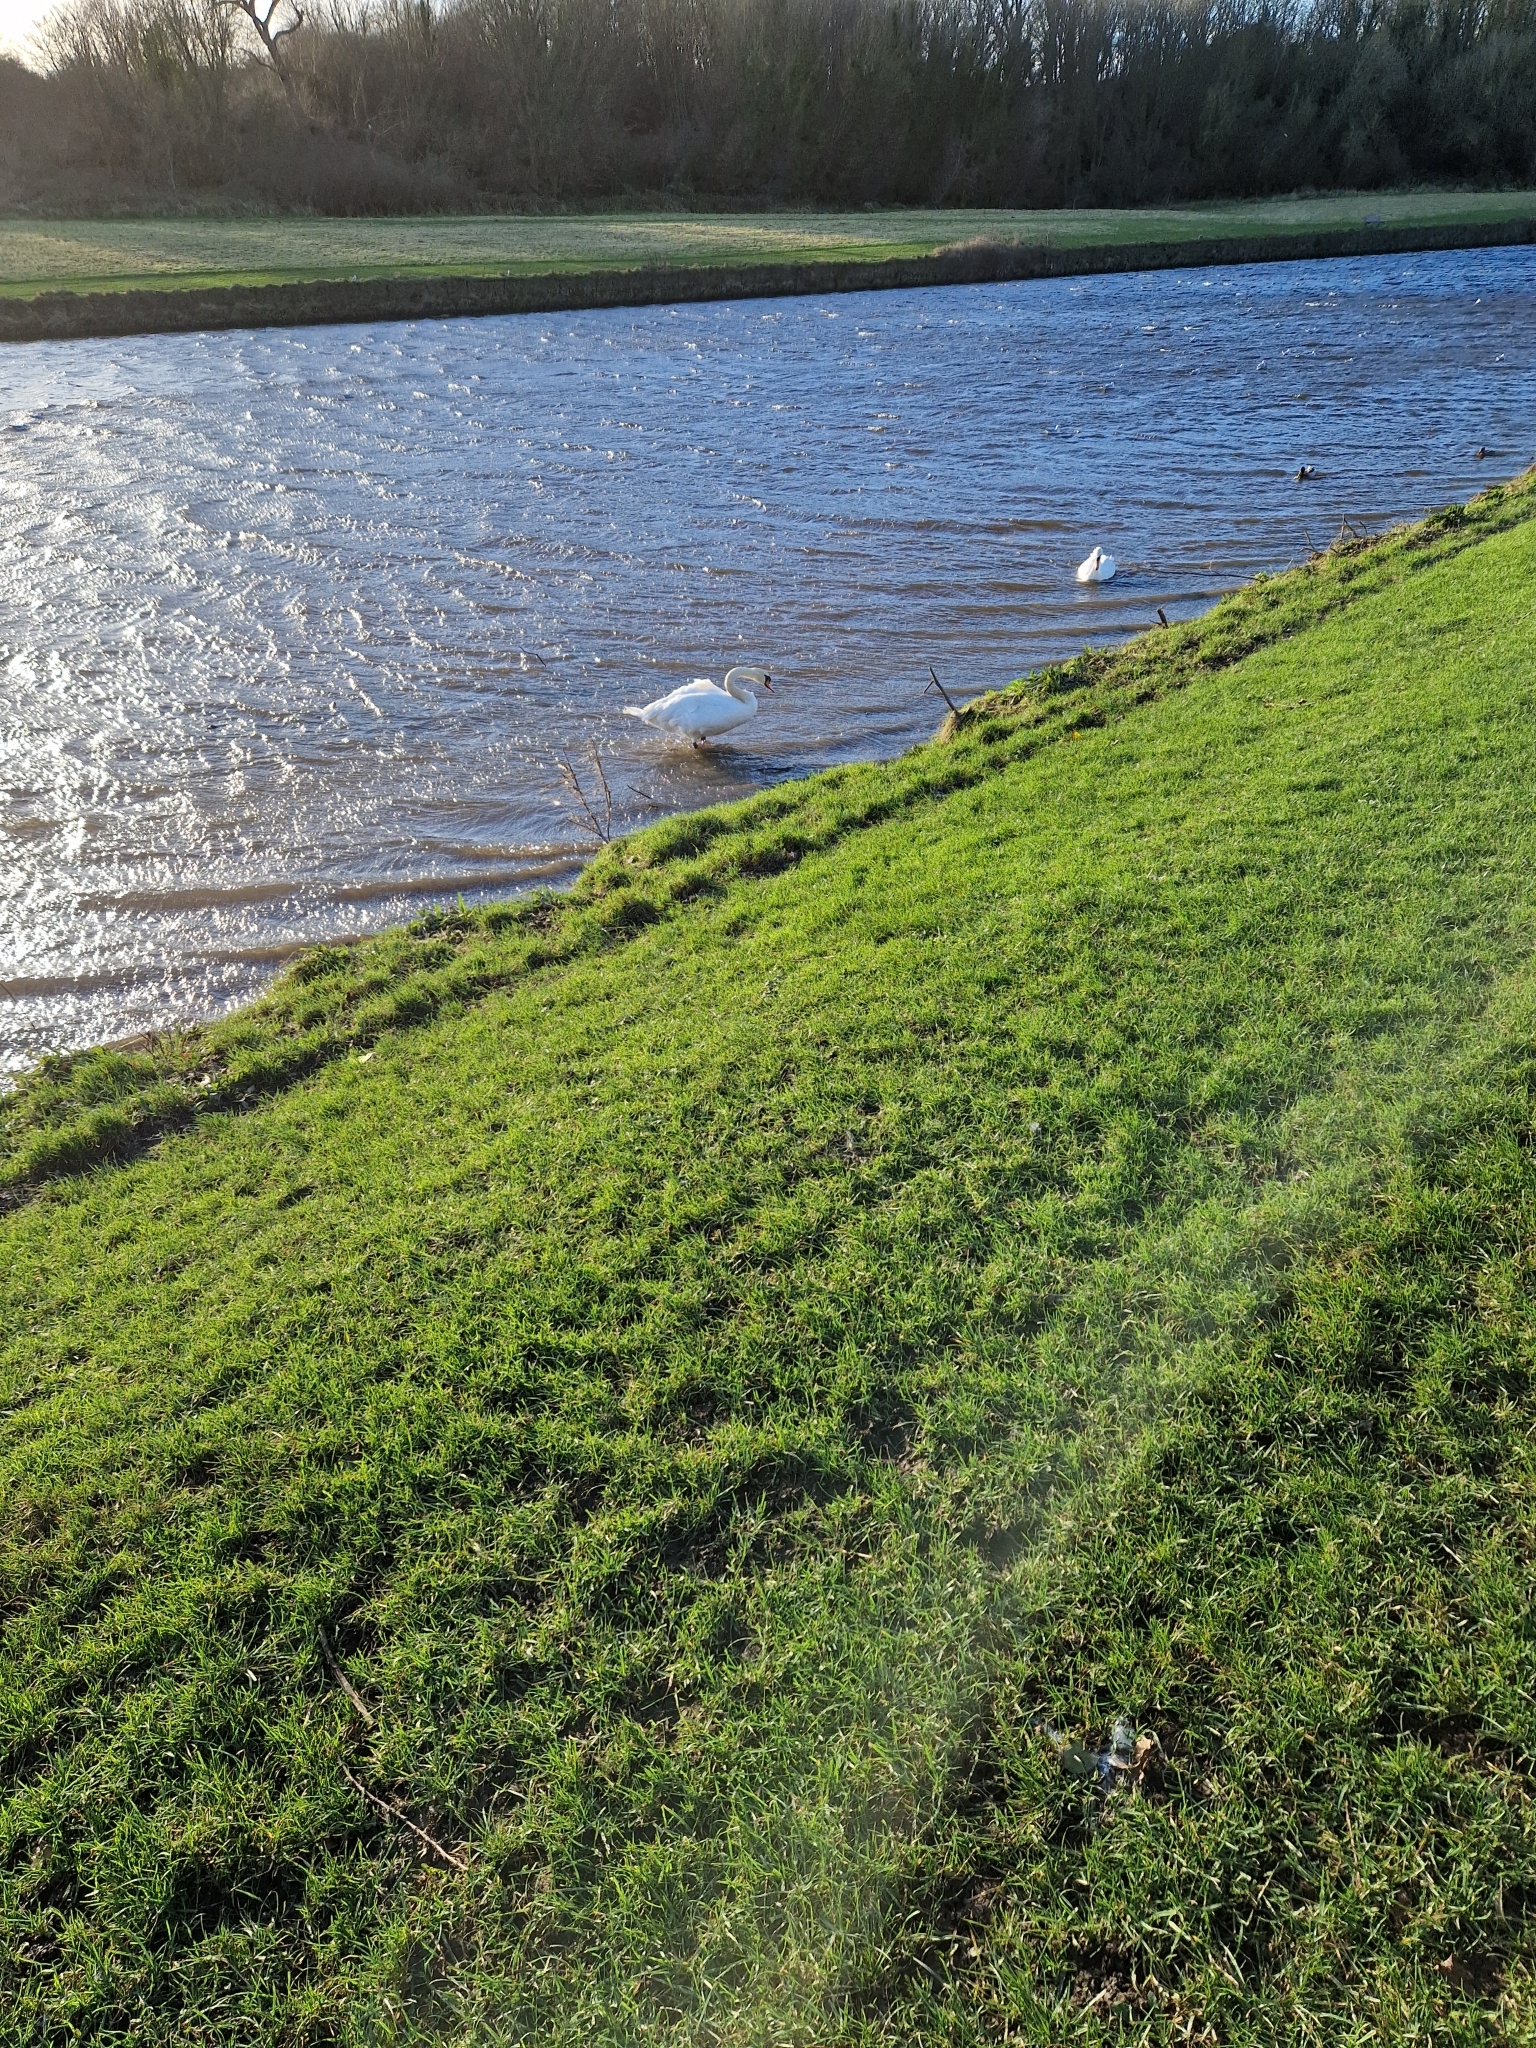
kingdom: Animalia
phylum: Chordata
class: Aves
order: Anseriformes
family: Anatidae
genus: Cygnus
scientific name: Cygnus olor
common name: Mute swan
